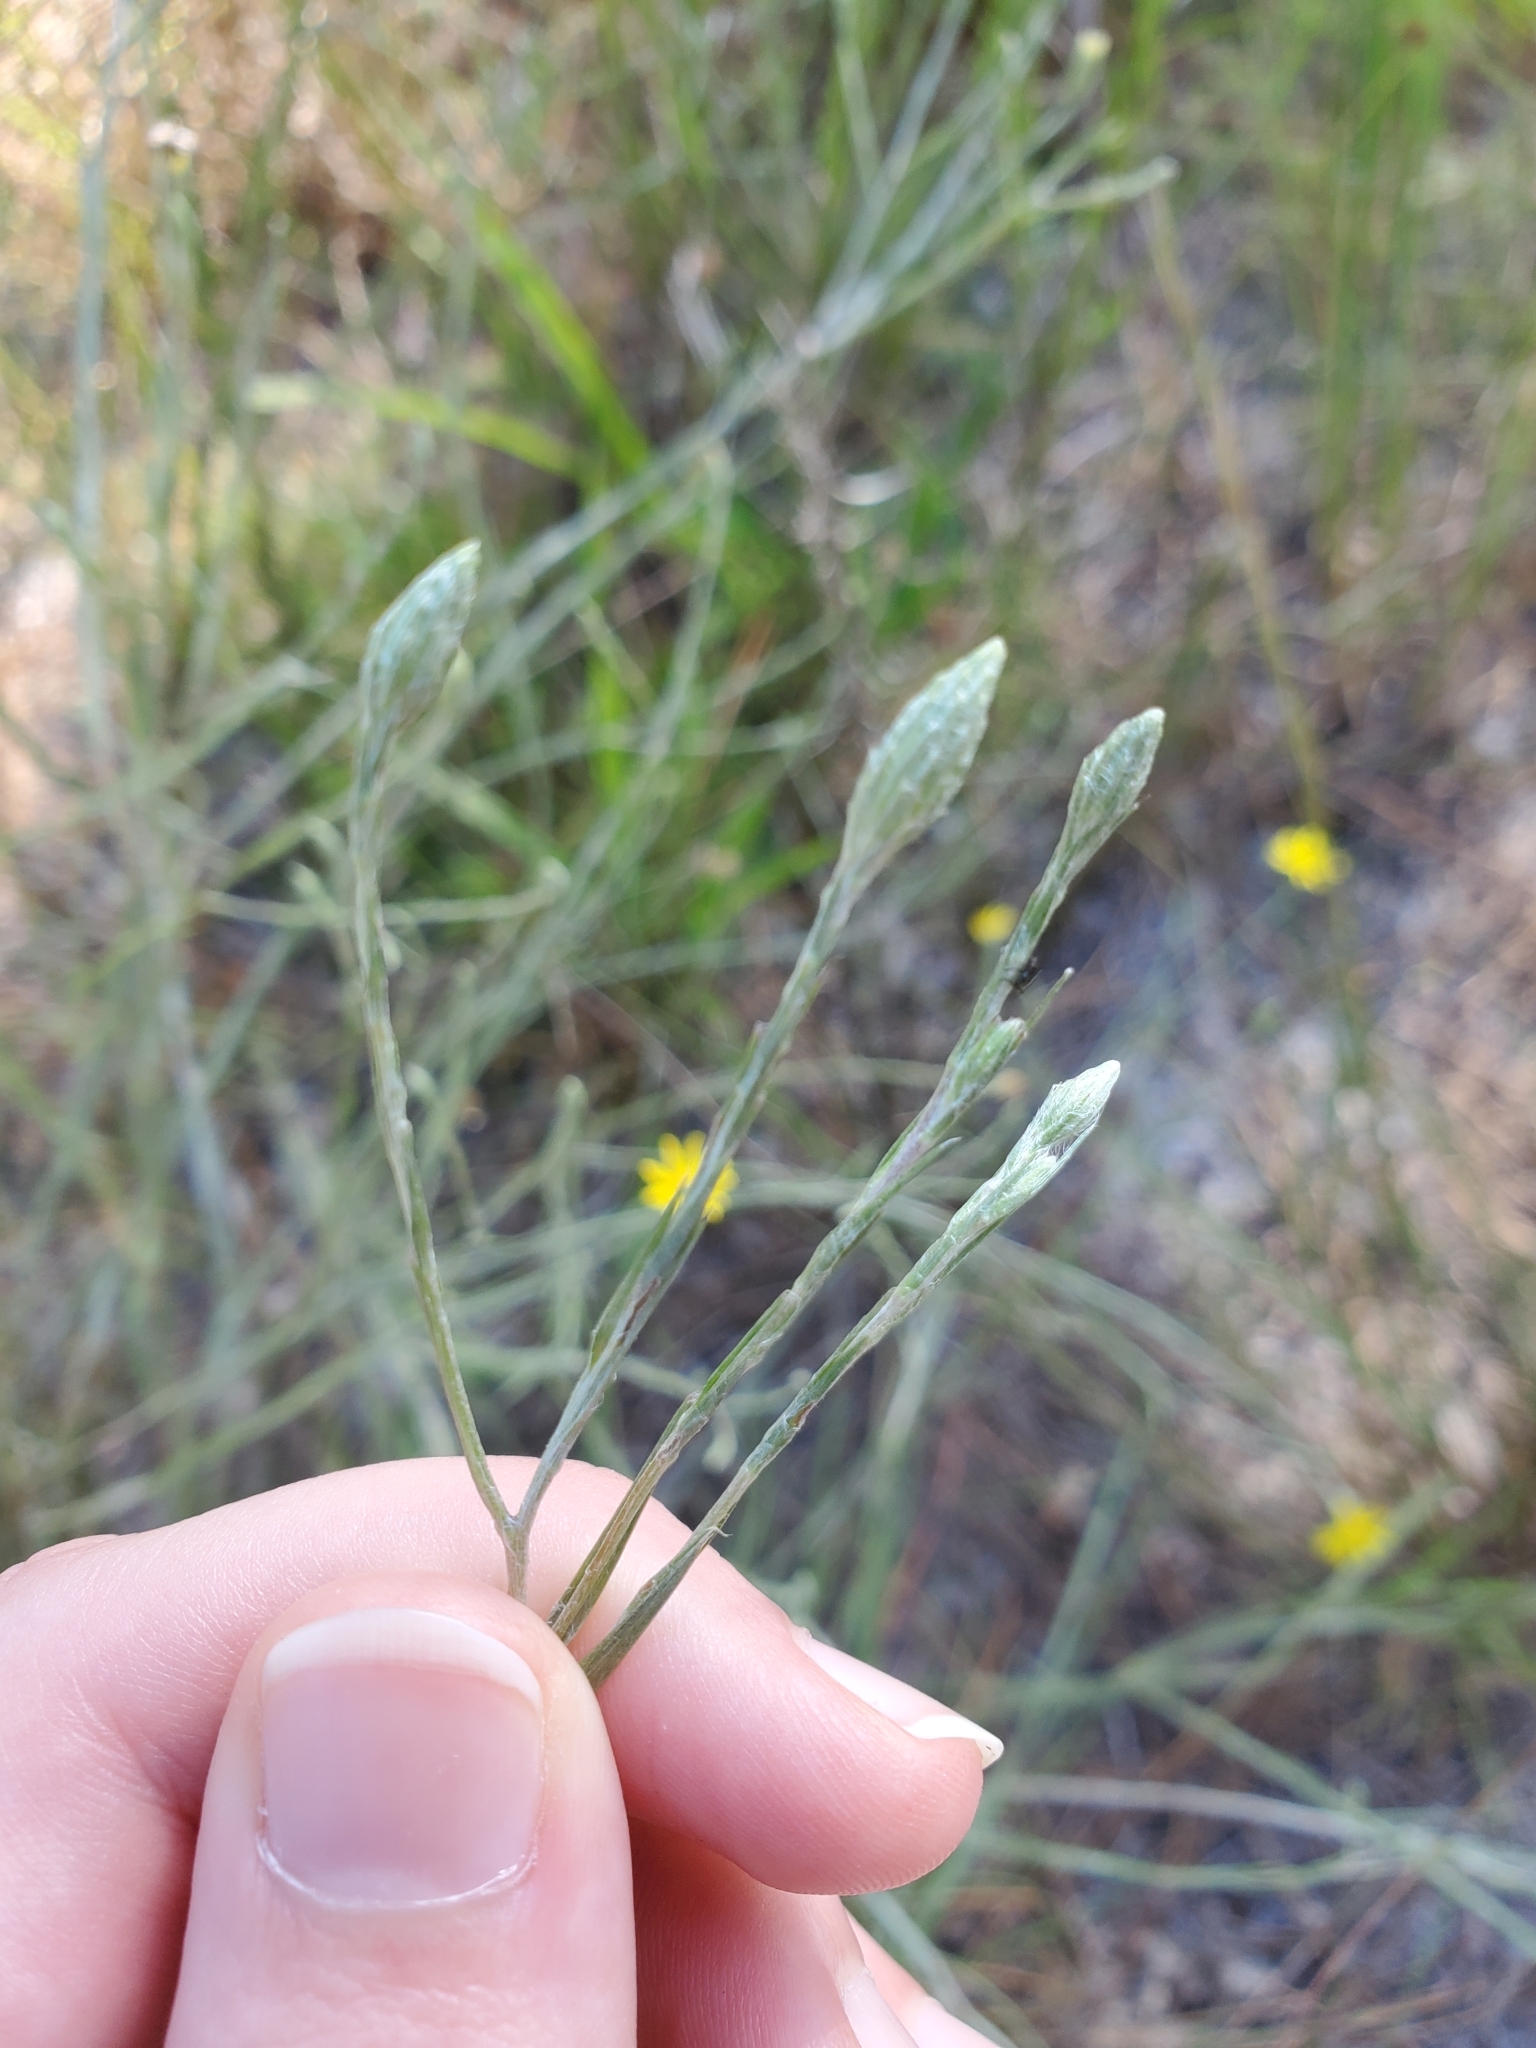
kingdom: Plantae
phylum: Tracheophyta
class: Magnoliopsida
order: Asterales
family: Asteraceae
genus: Pityopsis
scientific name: Pityopsis graminifolia
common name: Grass-leaf golden-aster
